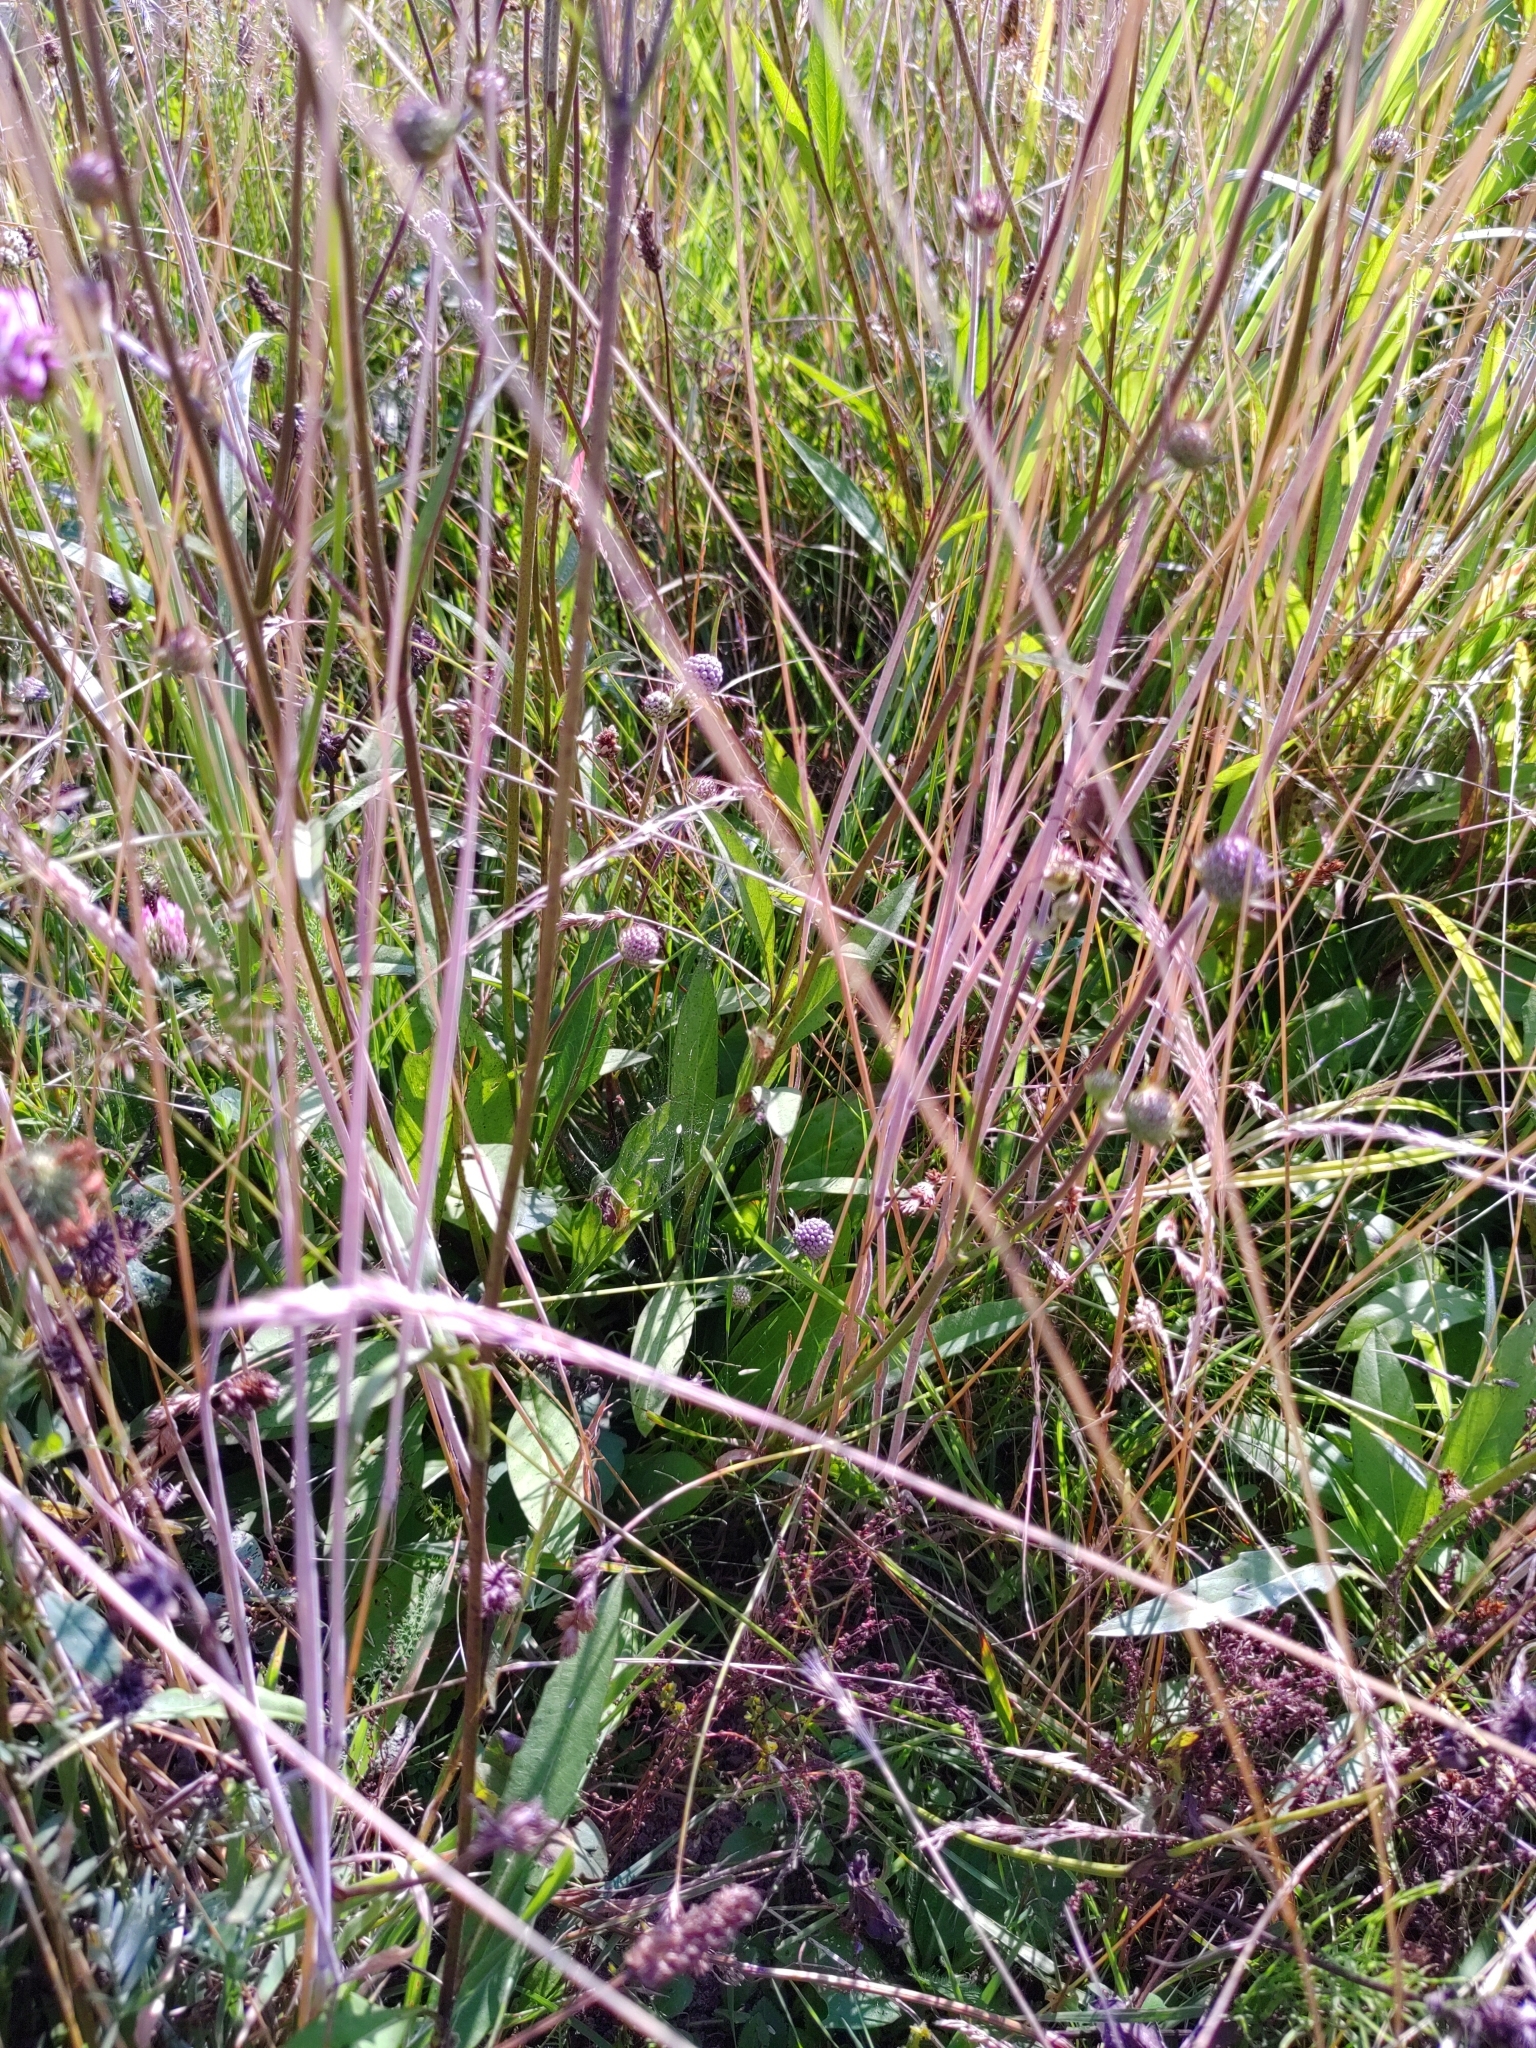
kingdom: Plantae
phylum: Tracheophyta
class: Magnoliopsida
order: Dipsacales
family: Caprifoliaceae
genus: Succisa
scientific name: Succisa pratensis
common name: Devil's-bit
